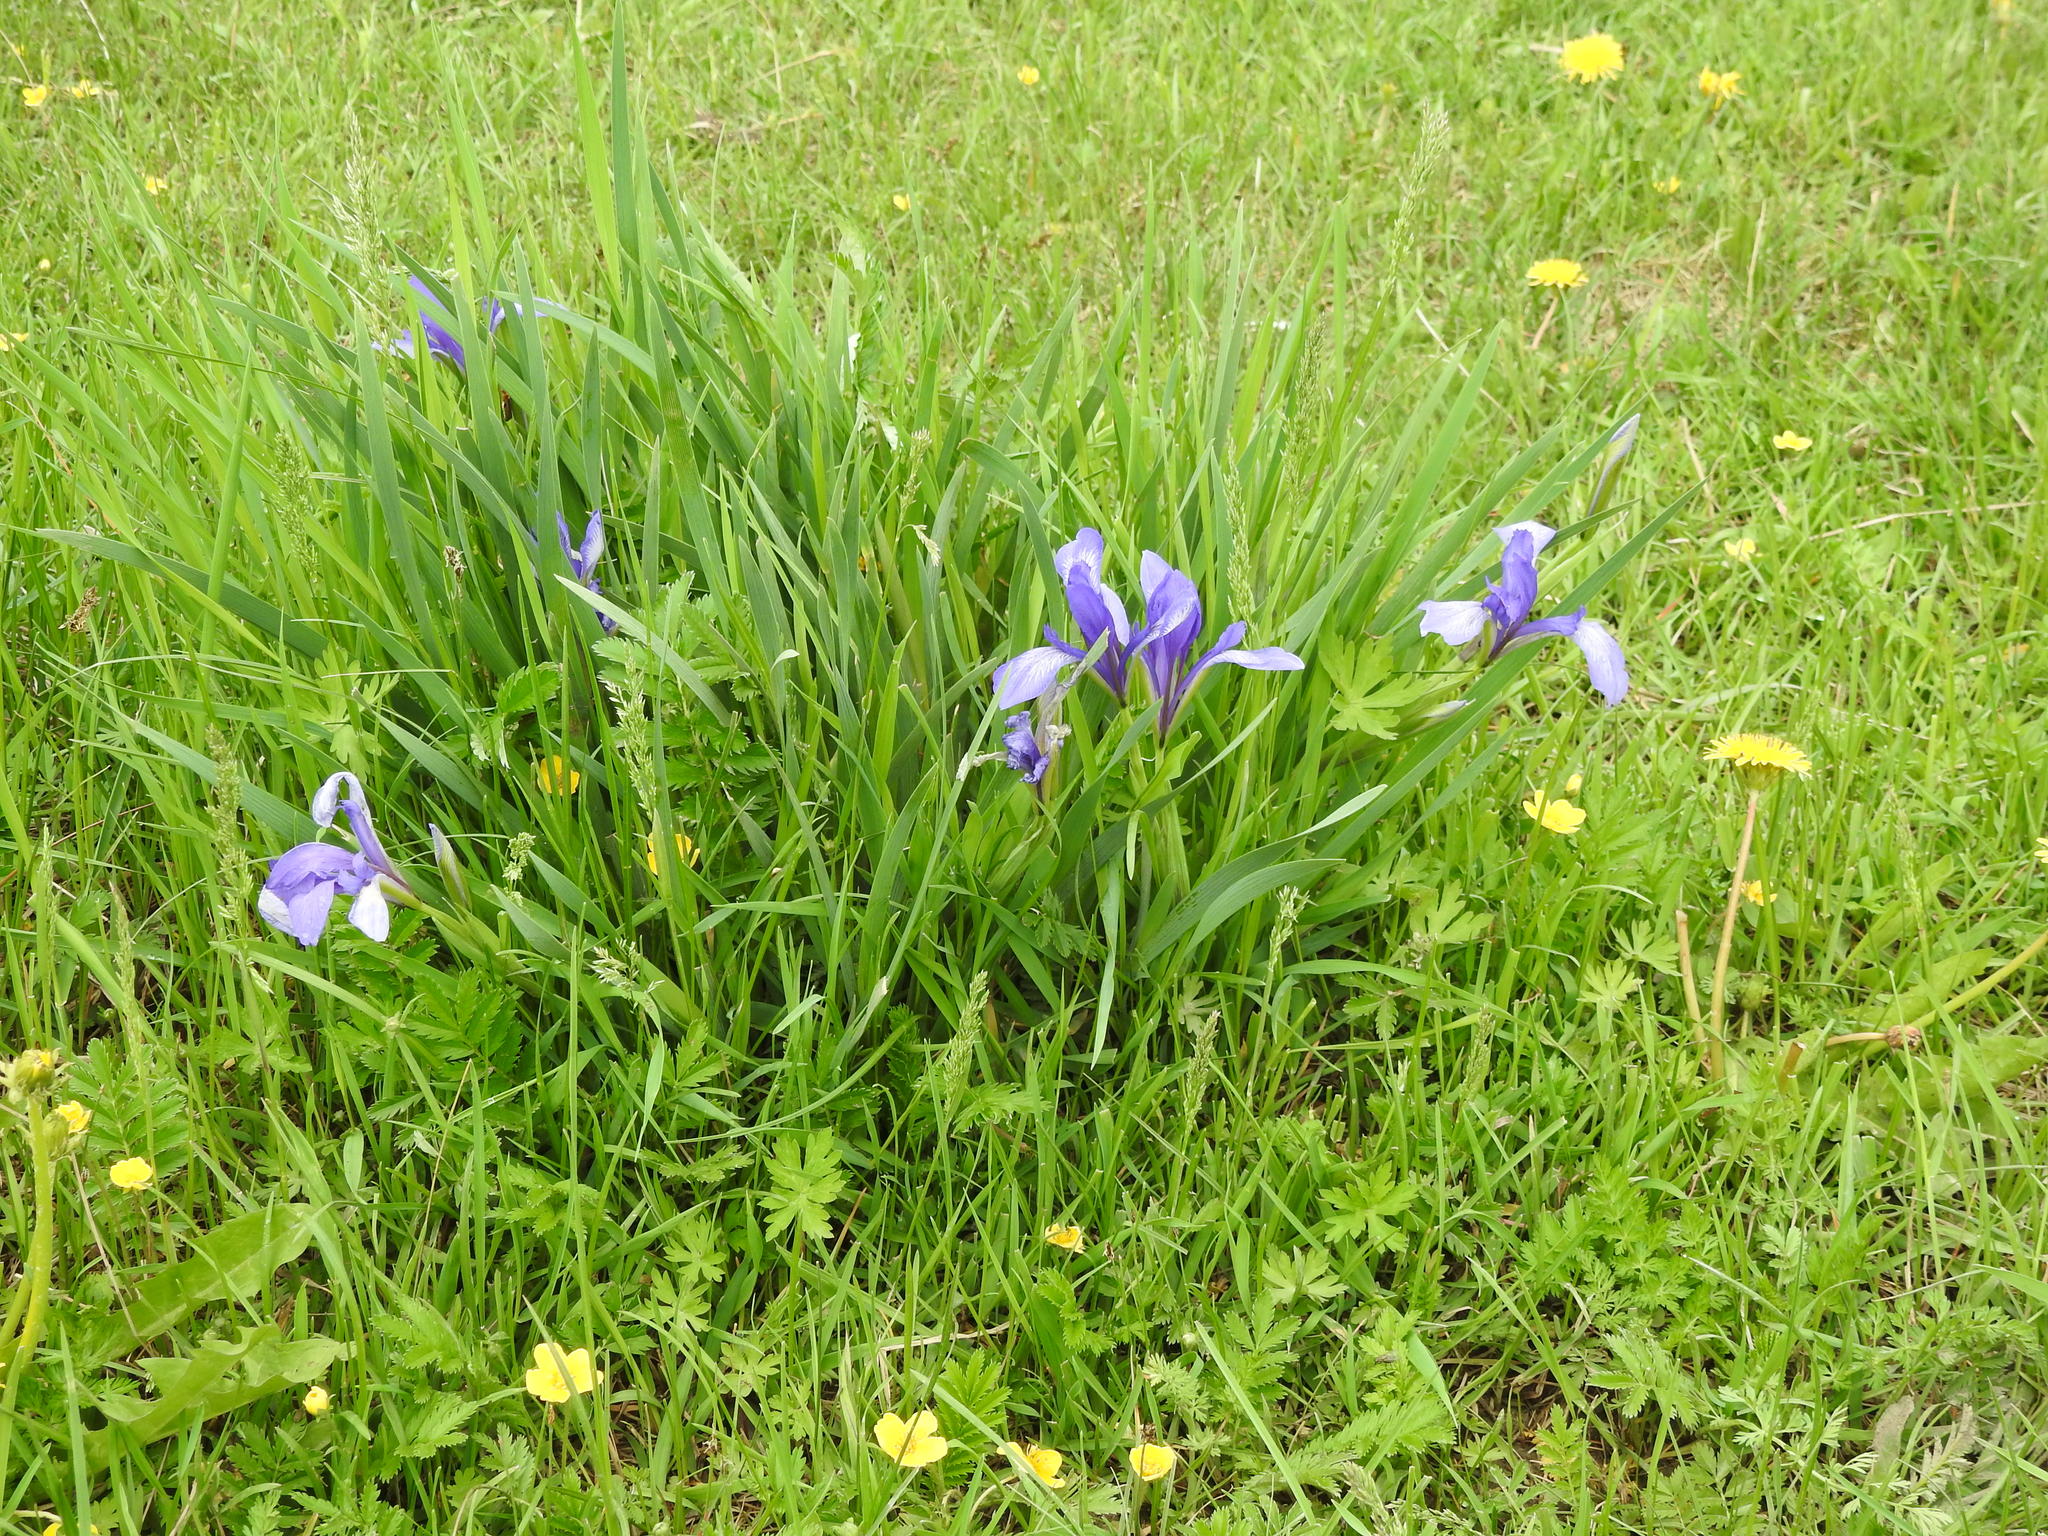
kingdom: Plantae
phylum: Tracheophyta
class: Liliopsida
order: Asparagales
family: Iridaceae
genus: Iris
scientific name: Iris lactea
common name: White-flower chinese iris
